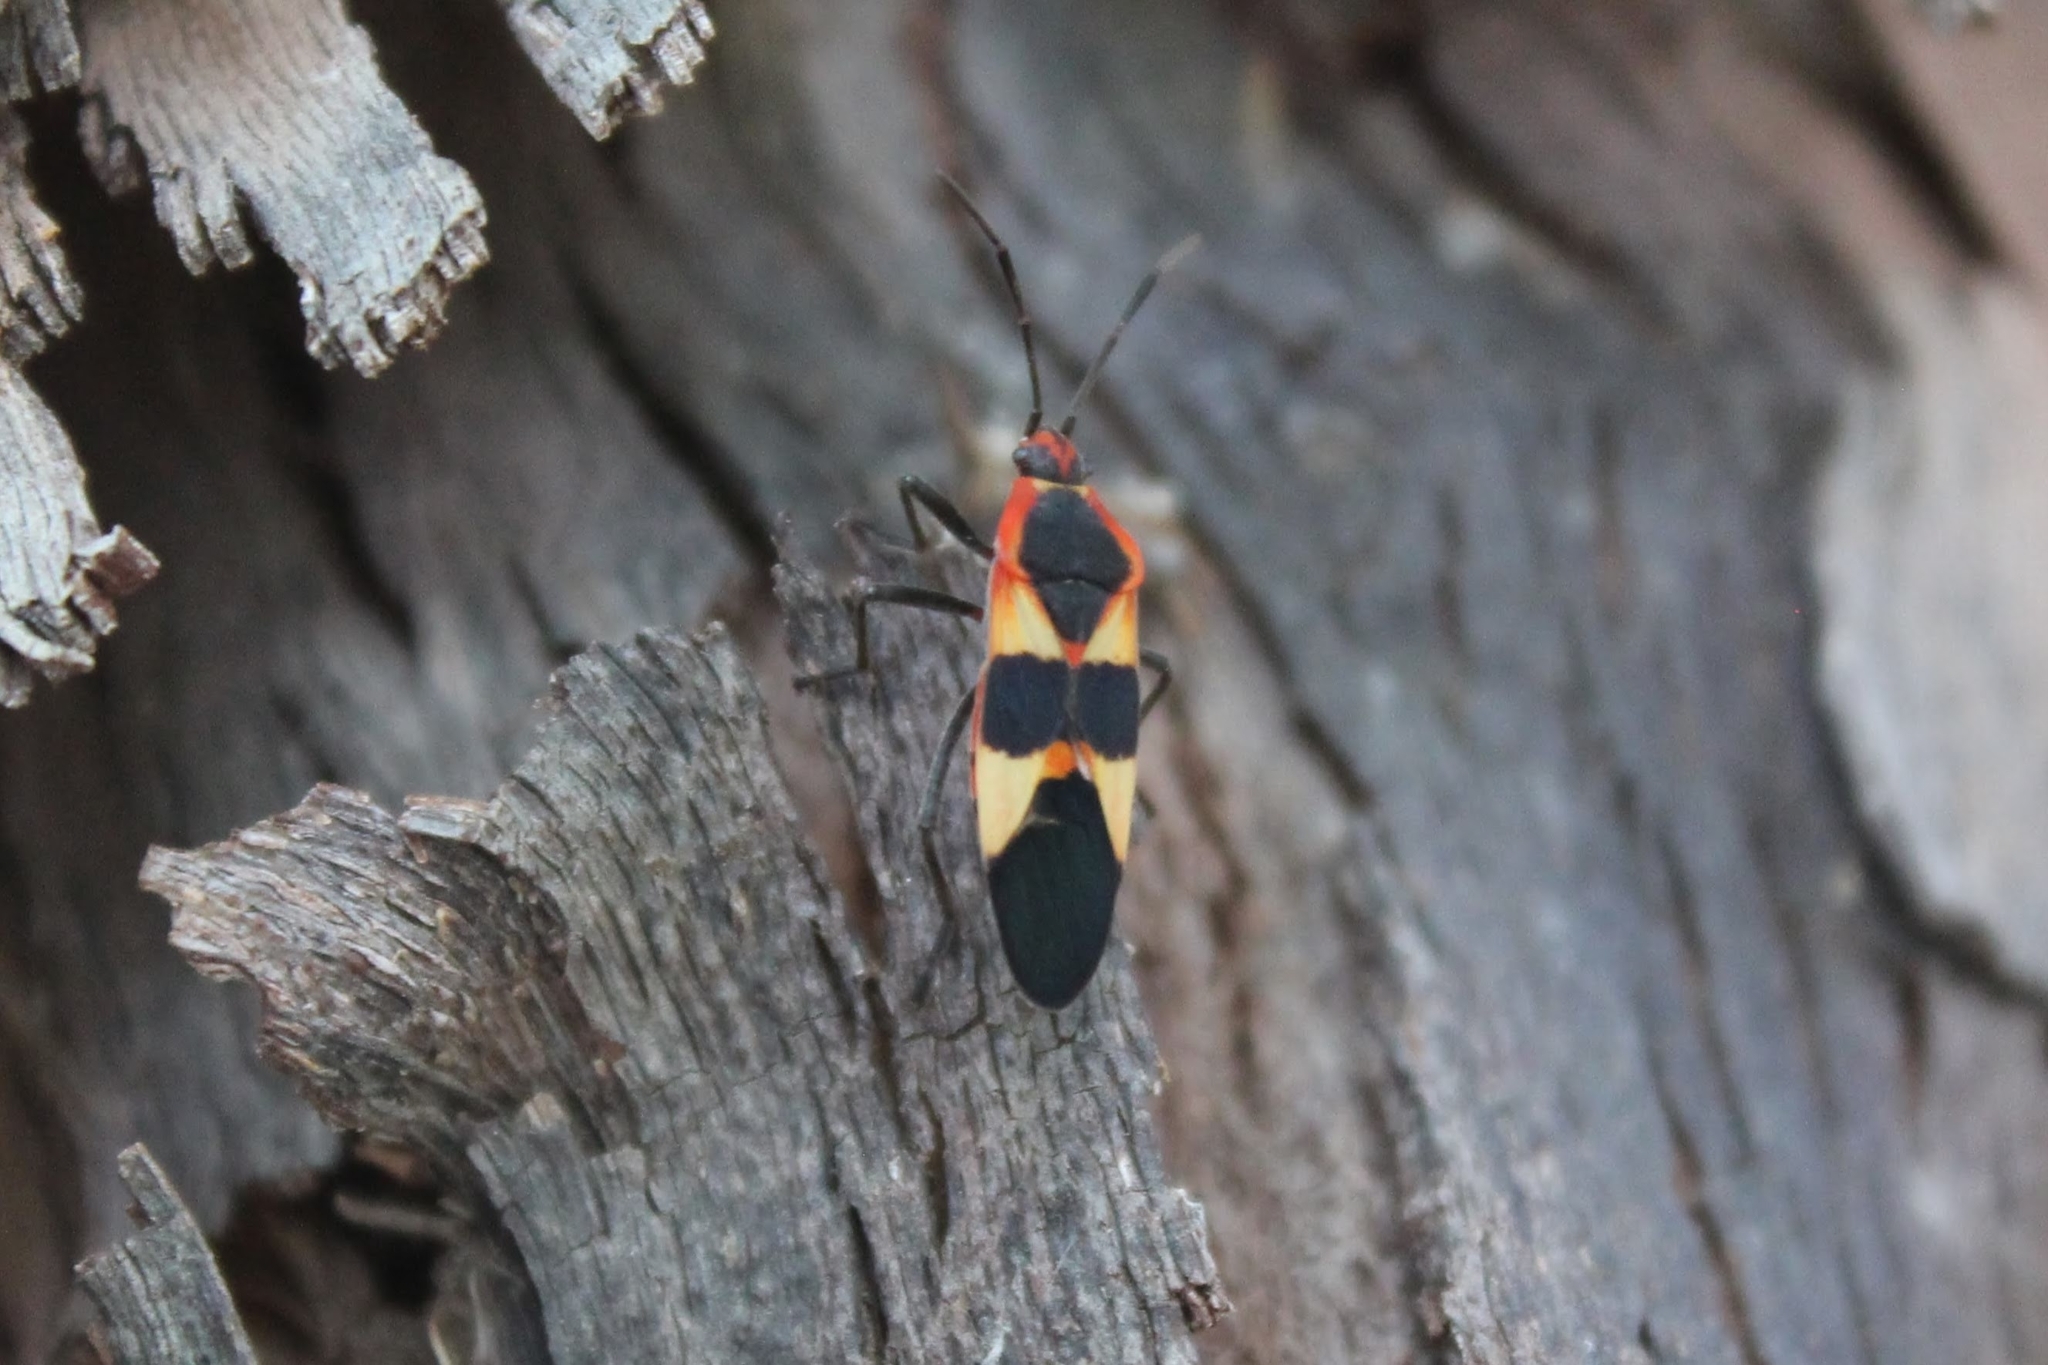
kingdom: Animalia
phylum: Arthropoda
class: Insecta
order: Hemiptera
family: Lygaeidae
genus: Oncopeltus
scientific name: Oncopeltus fasciatus
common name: Large milkweed bug
